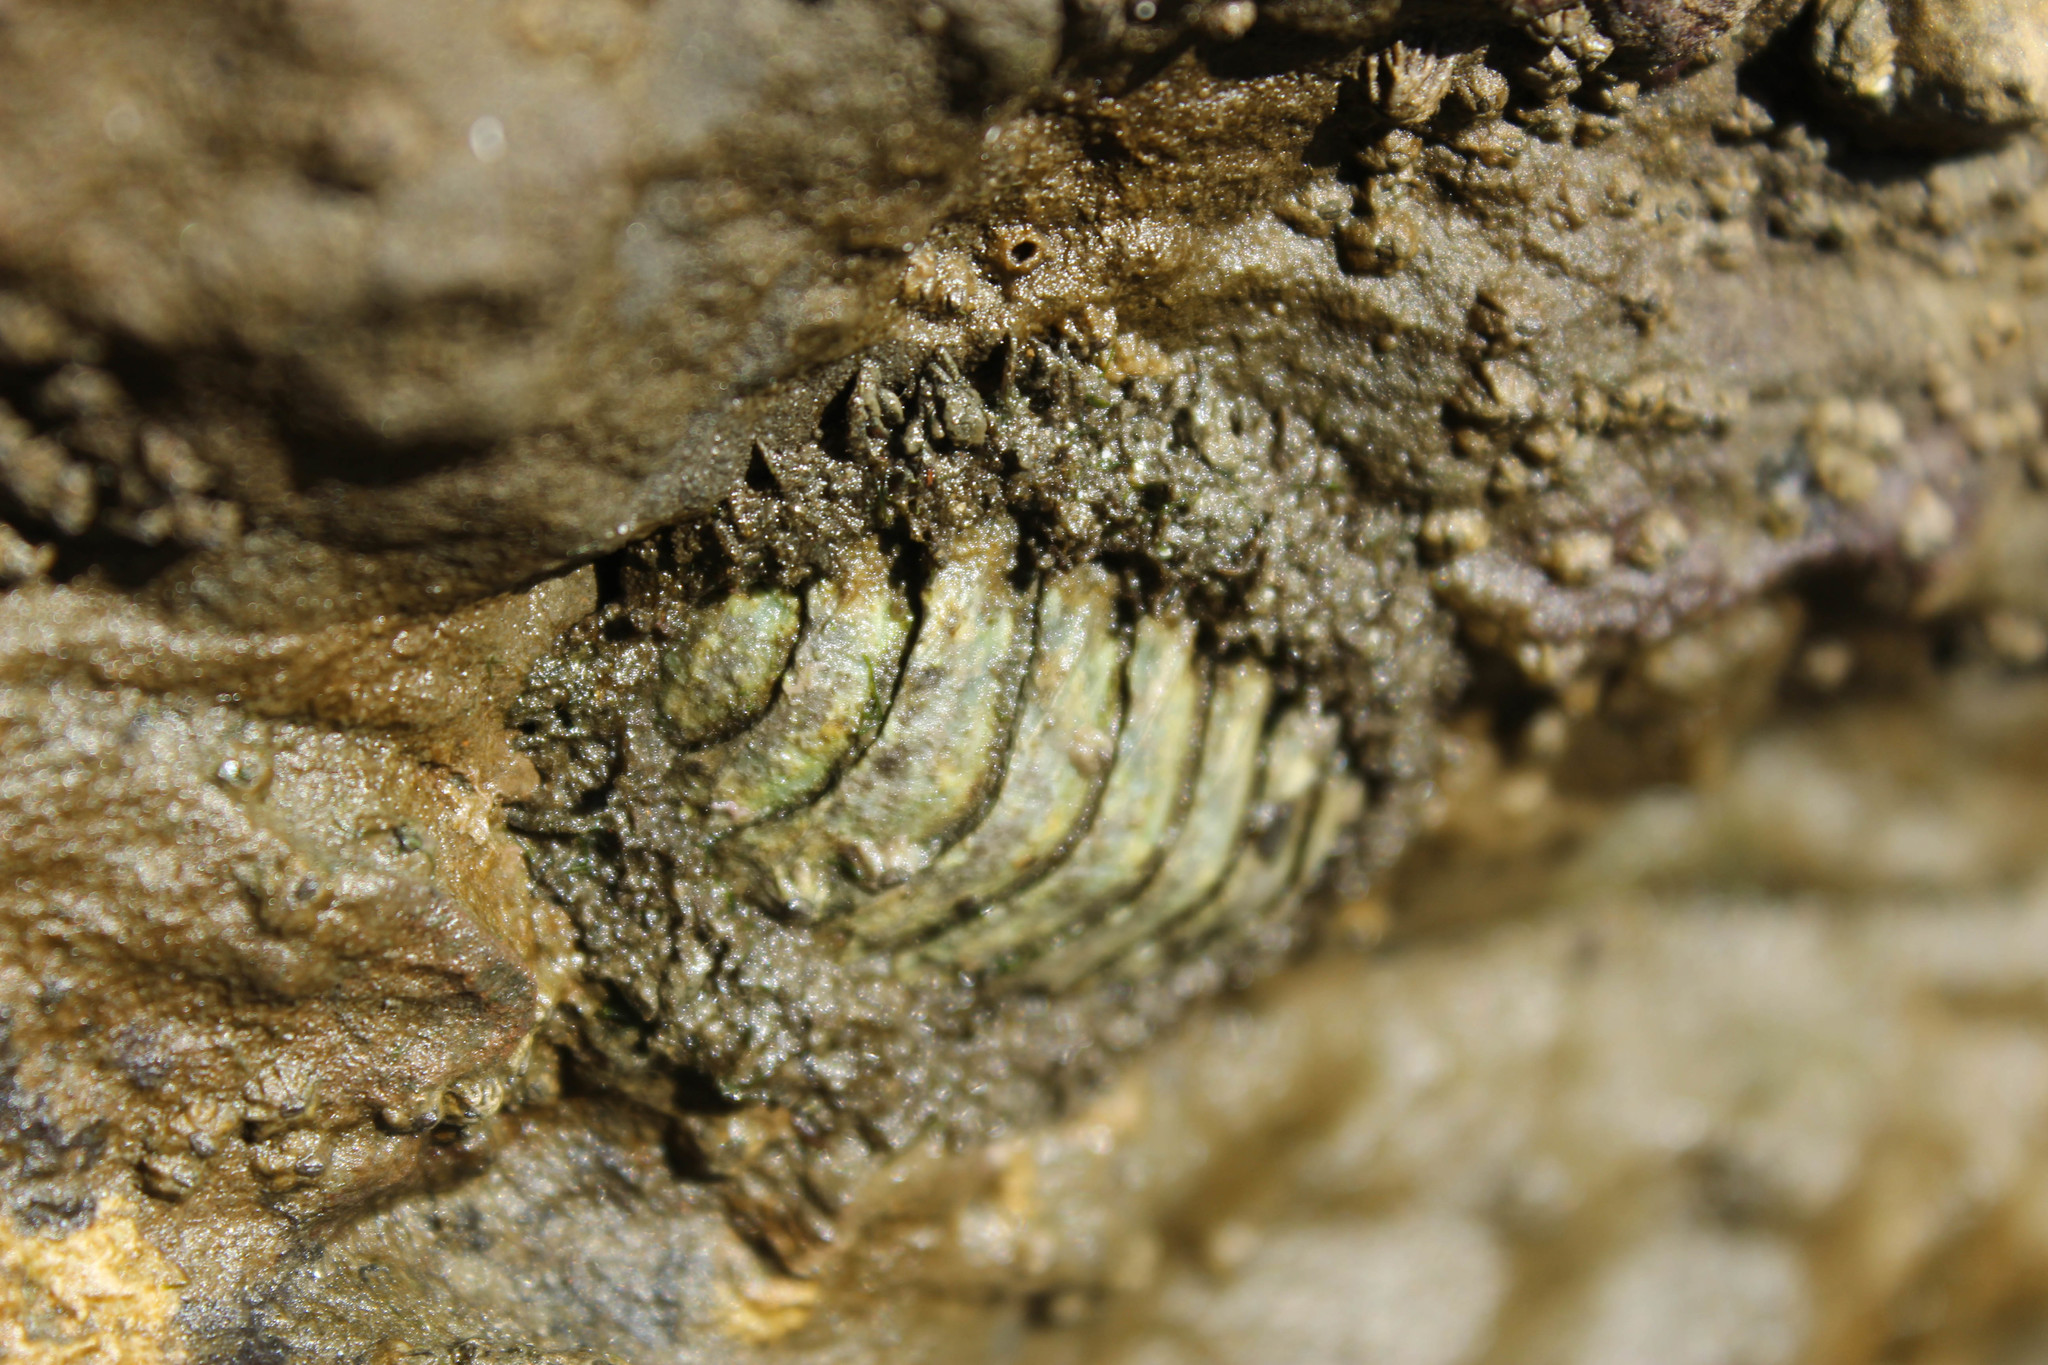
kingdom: Animalia
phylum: Mollusca
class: Polyplacophora
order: Chitonida
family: Mopaliidae
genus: Mopalia
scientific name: Mopalia muscosa
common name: Mossy chiton
